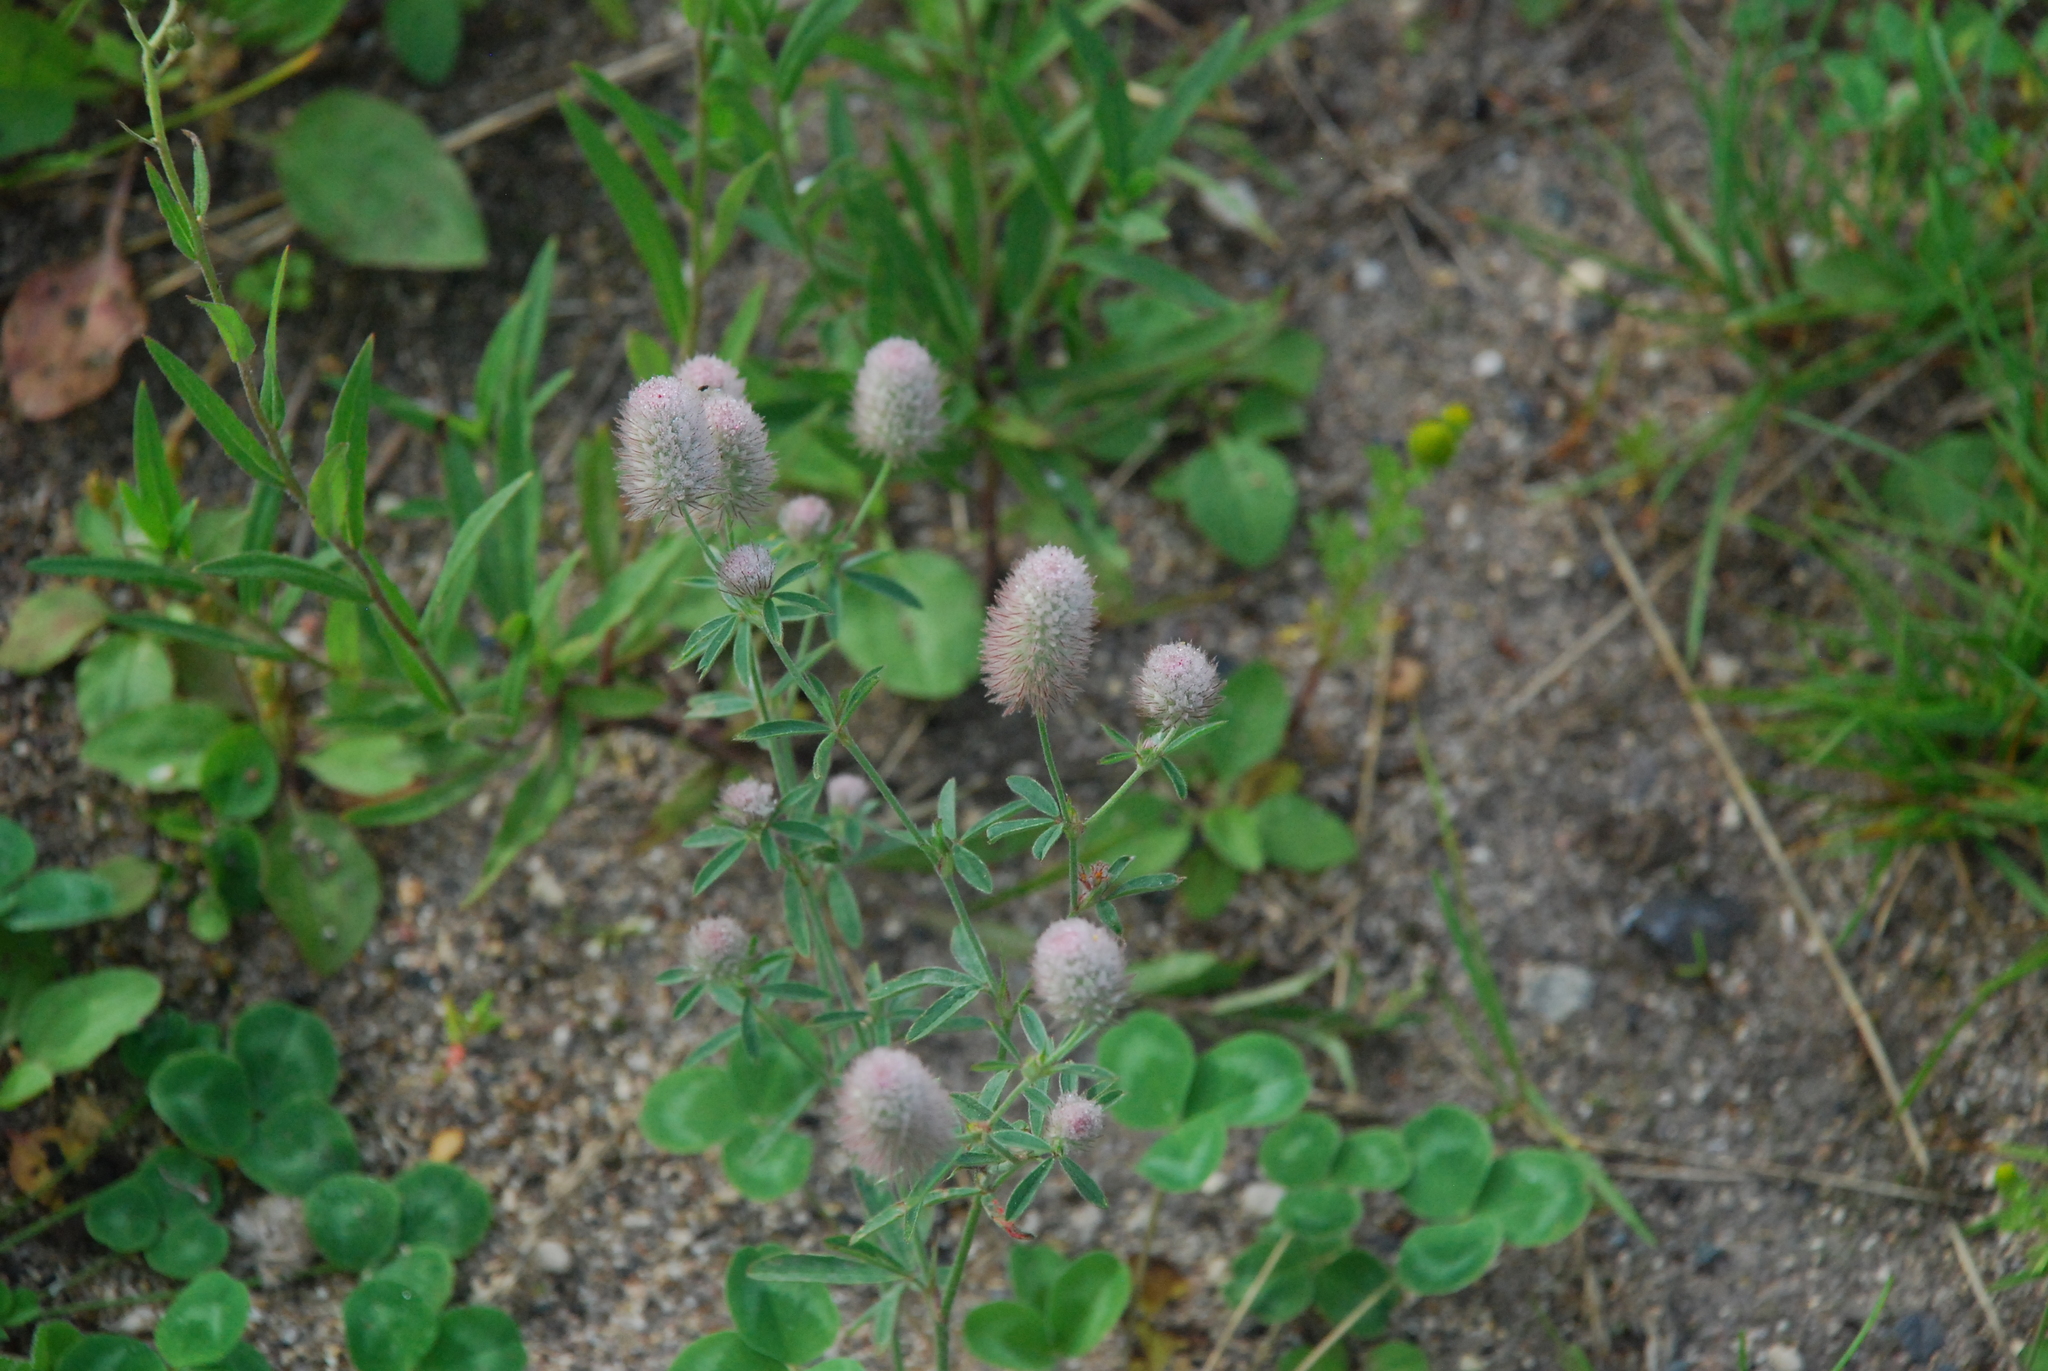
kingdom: Plantae
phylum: Tracheophyta
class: Magnoliopsida
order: Fabales
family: Fabaceae
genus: Trifolium
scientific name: Trifolium arvense
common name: Hare's-foot clover
